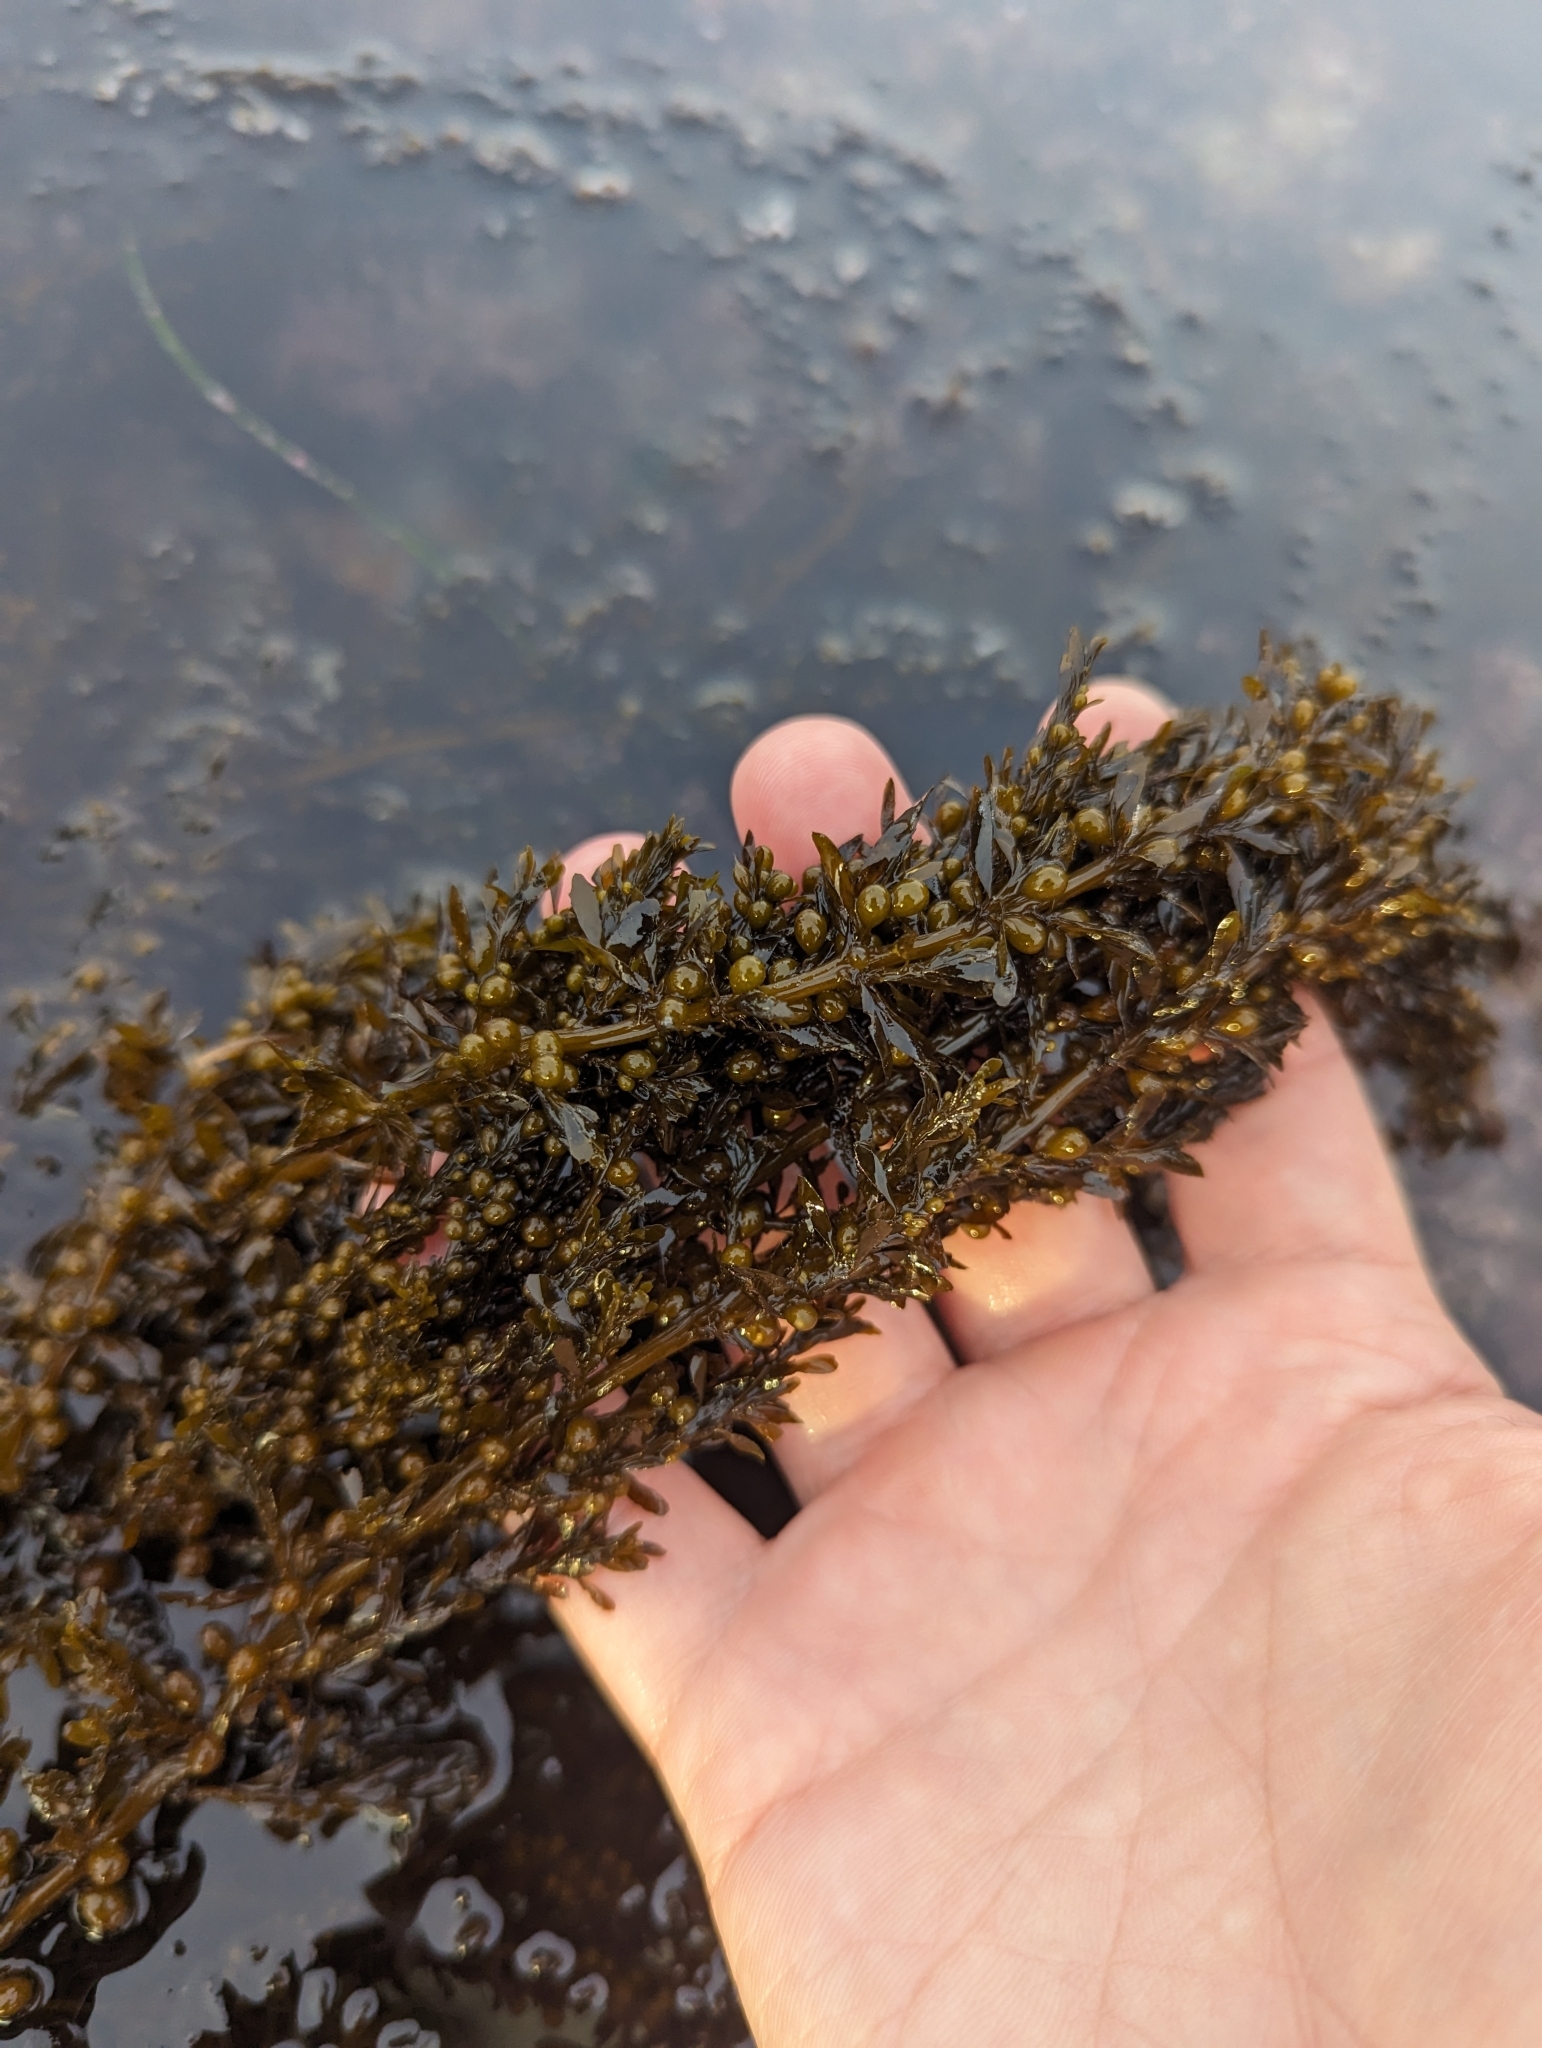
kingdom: Chromista
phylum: Ochrophyta
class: Phaeophyceae
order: Fucales
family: Sargassaceae
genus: Sargassum
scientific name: Sargassum muticum
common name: Japweed
